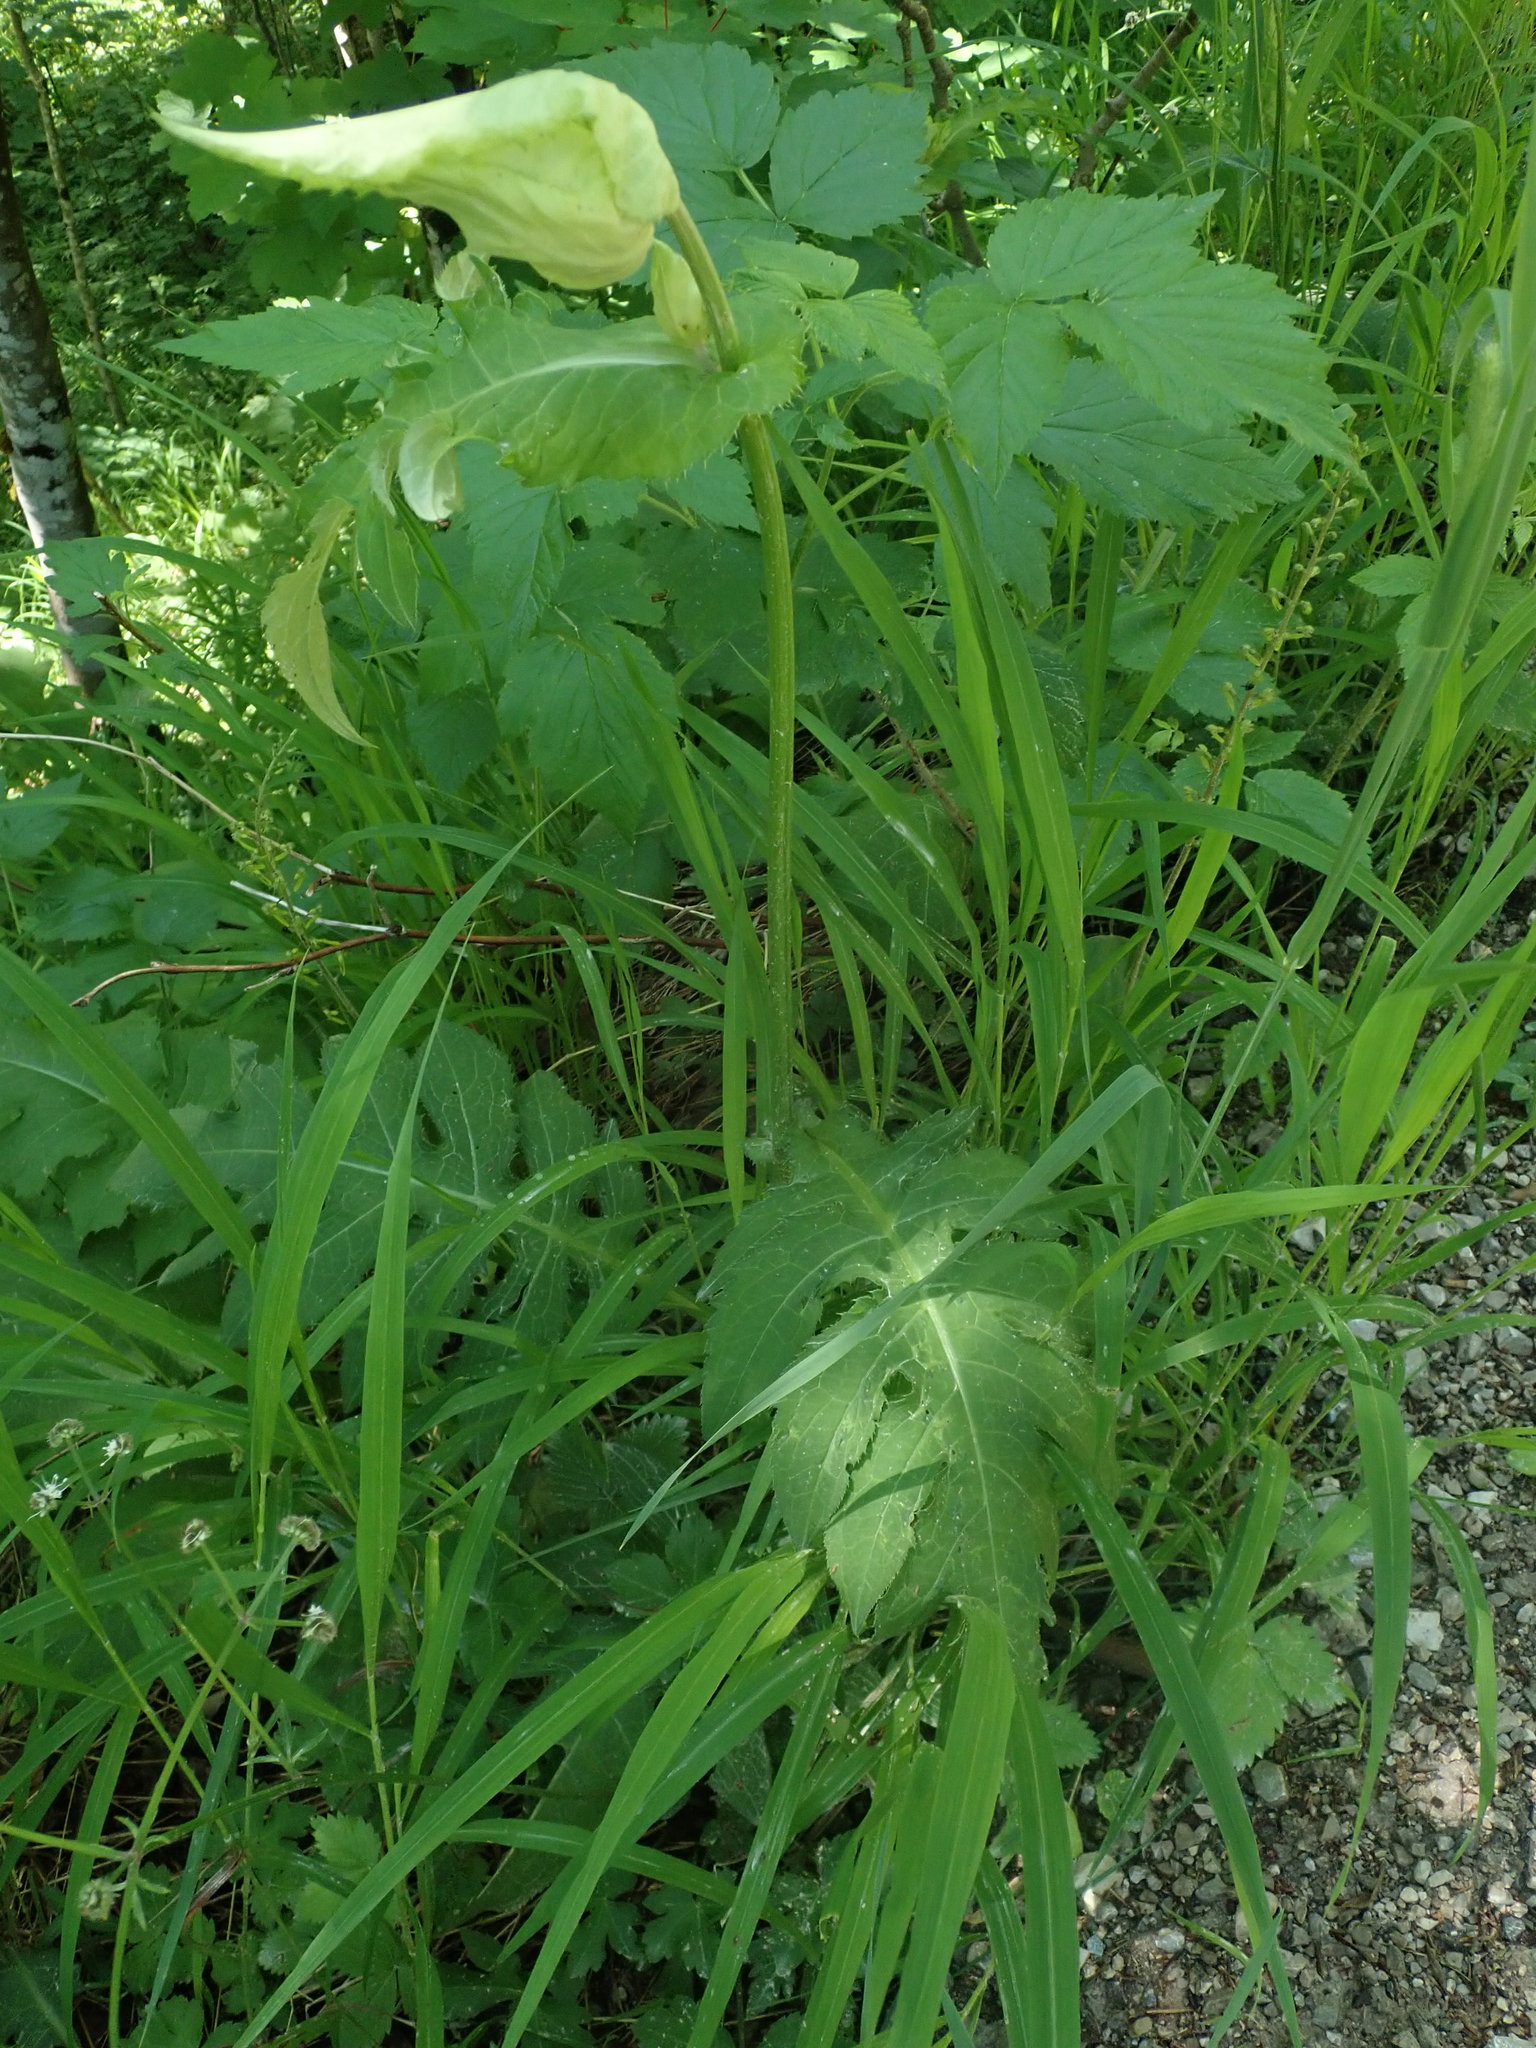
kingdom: Plantae
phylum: Tracheophyta
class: Magnoliopsida
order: Asterales
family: Asteraceae
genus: Cirsium
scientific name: Cirsium oleraceum
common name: Cabbage thistle
